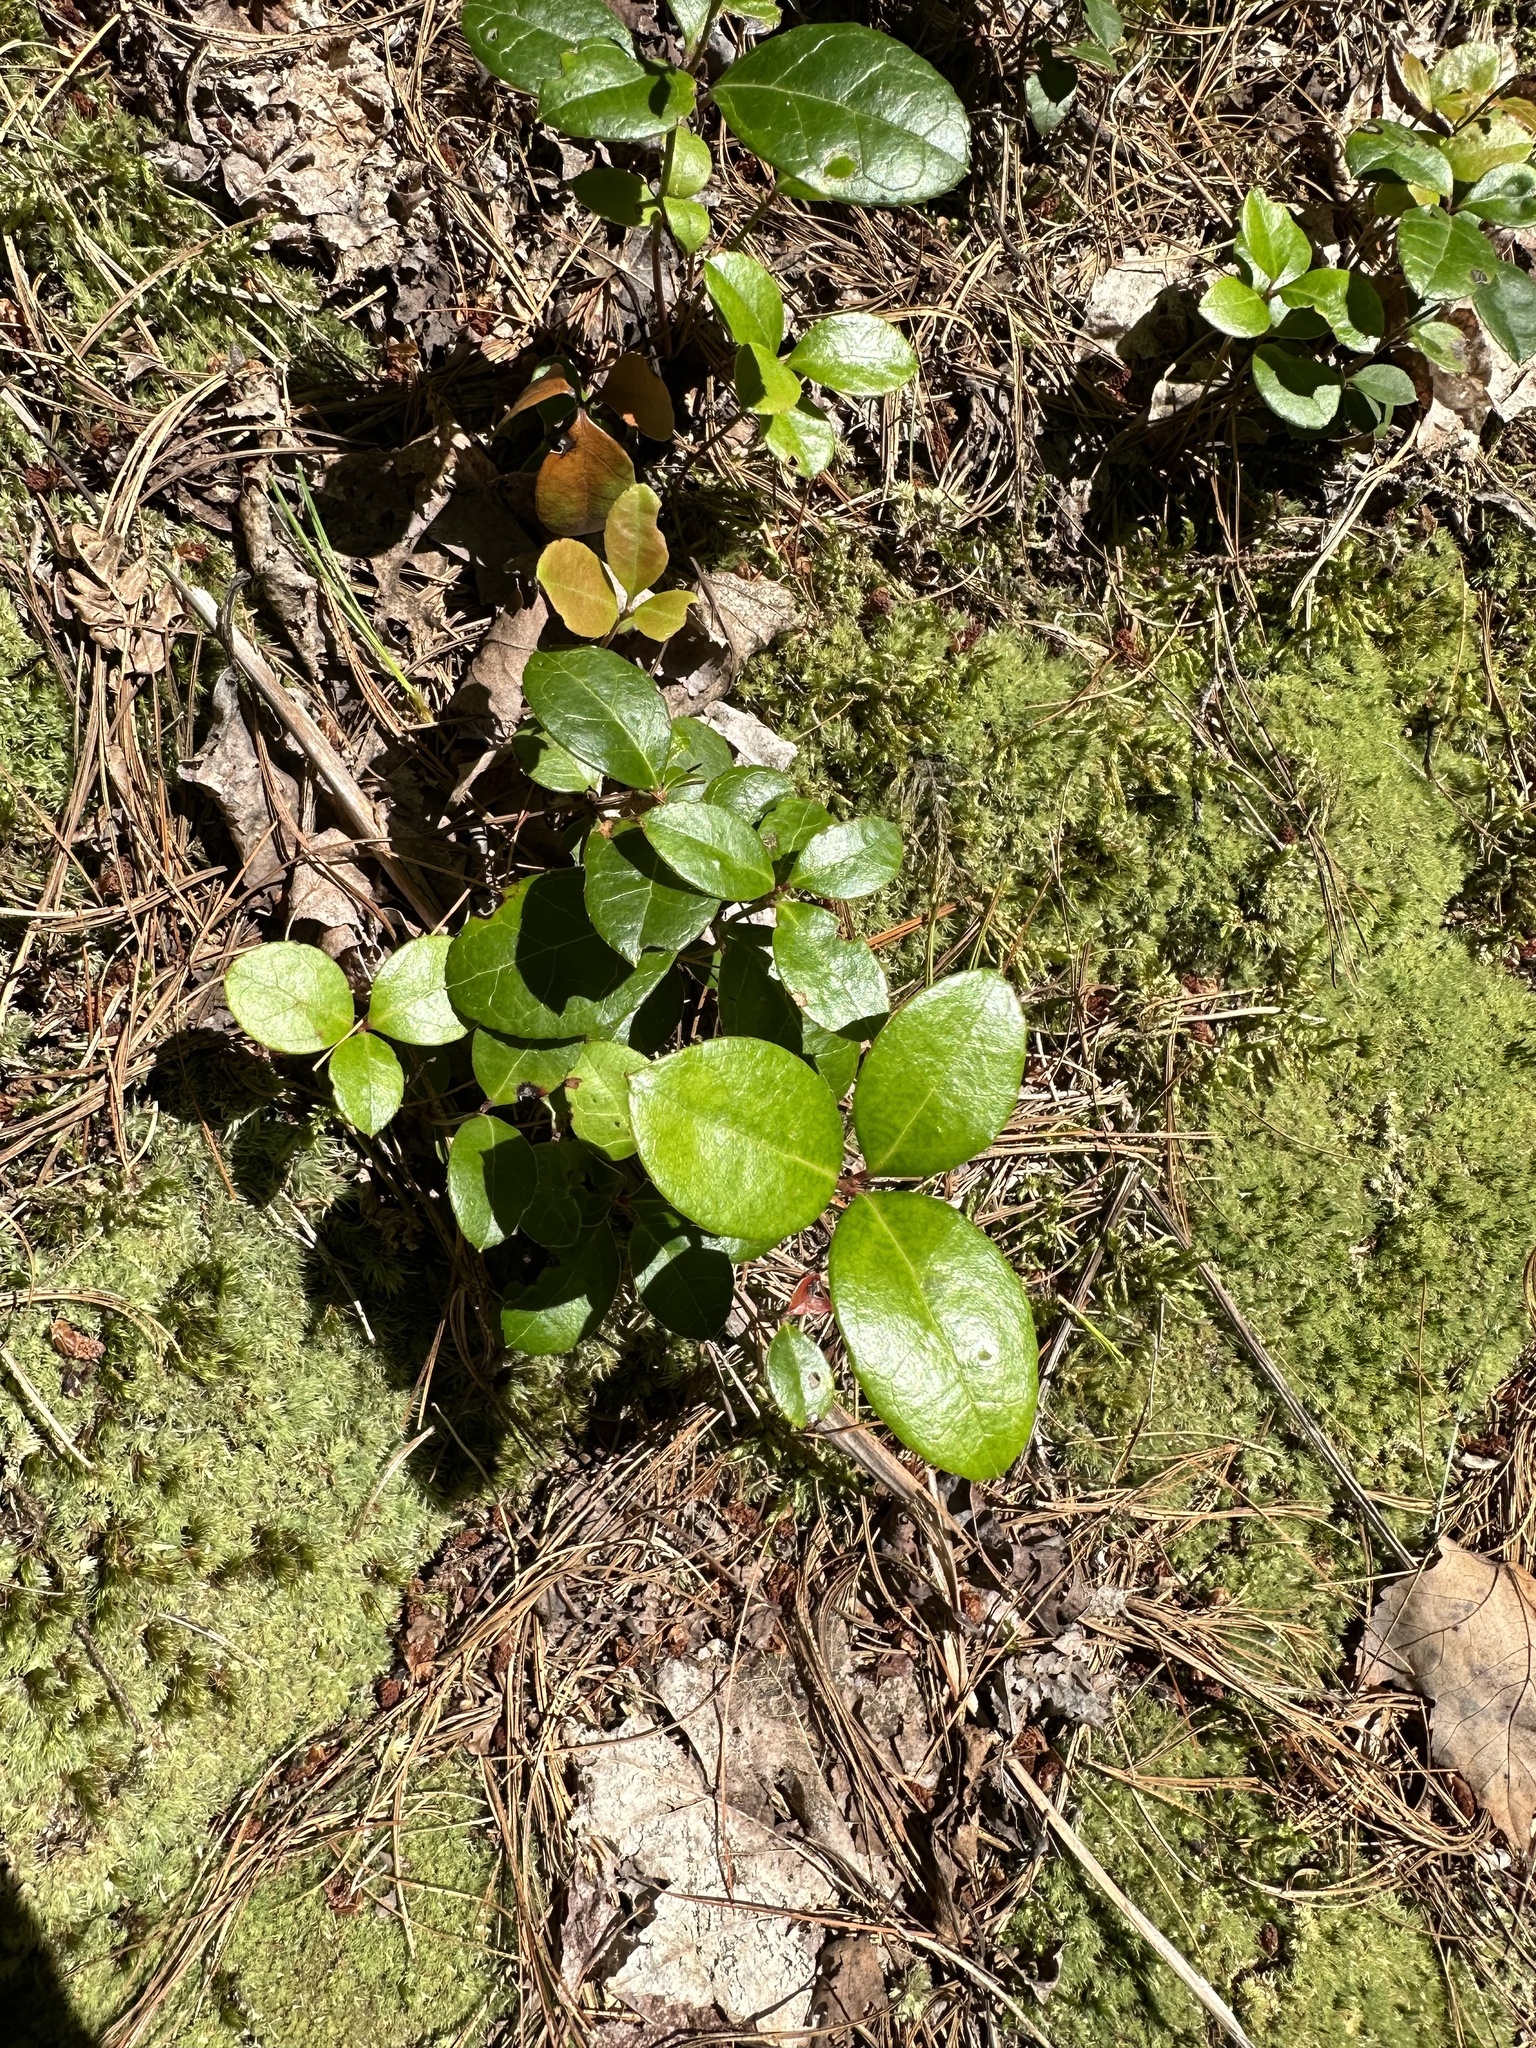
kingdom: Plantae
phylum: Tracheophyta
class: Magnoliopsida
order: Ericales
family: Ericaceae
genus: Gaultheria
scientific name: Gaultheria procumbens
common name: Checkerberry
